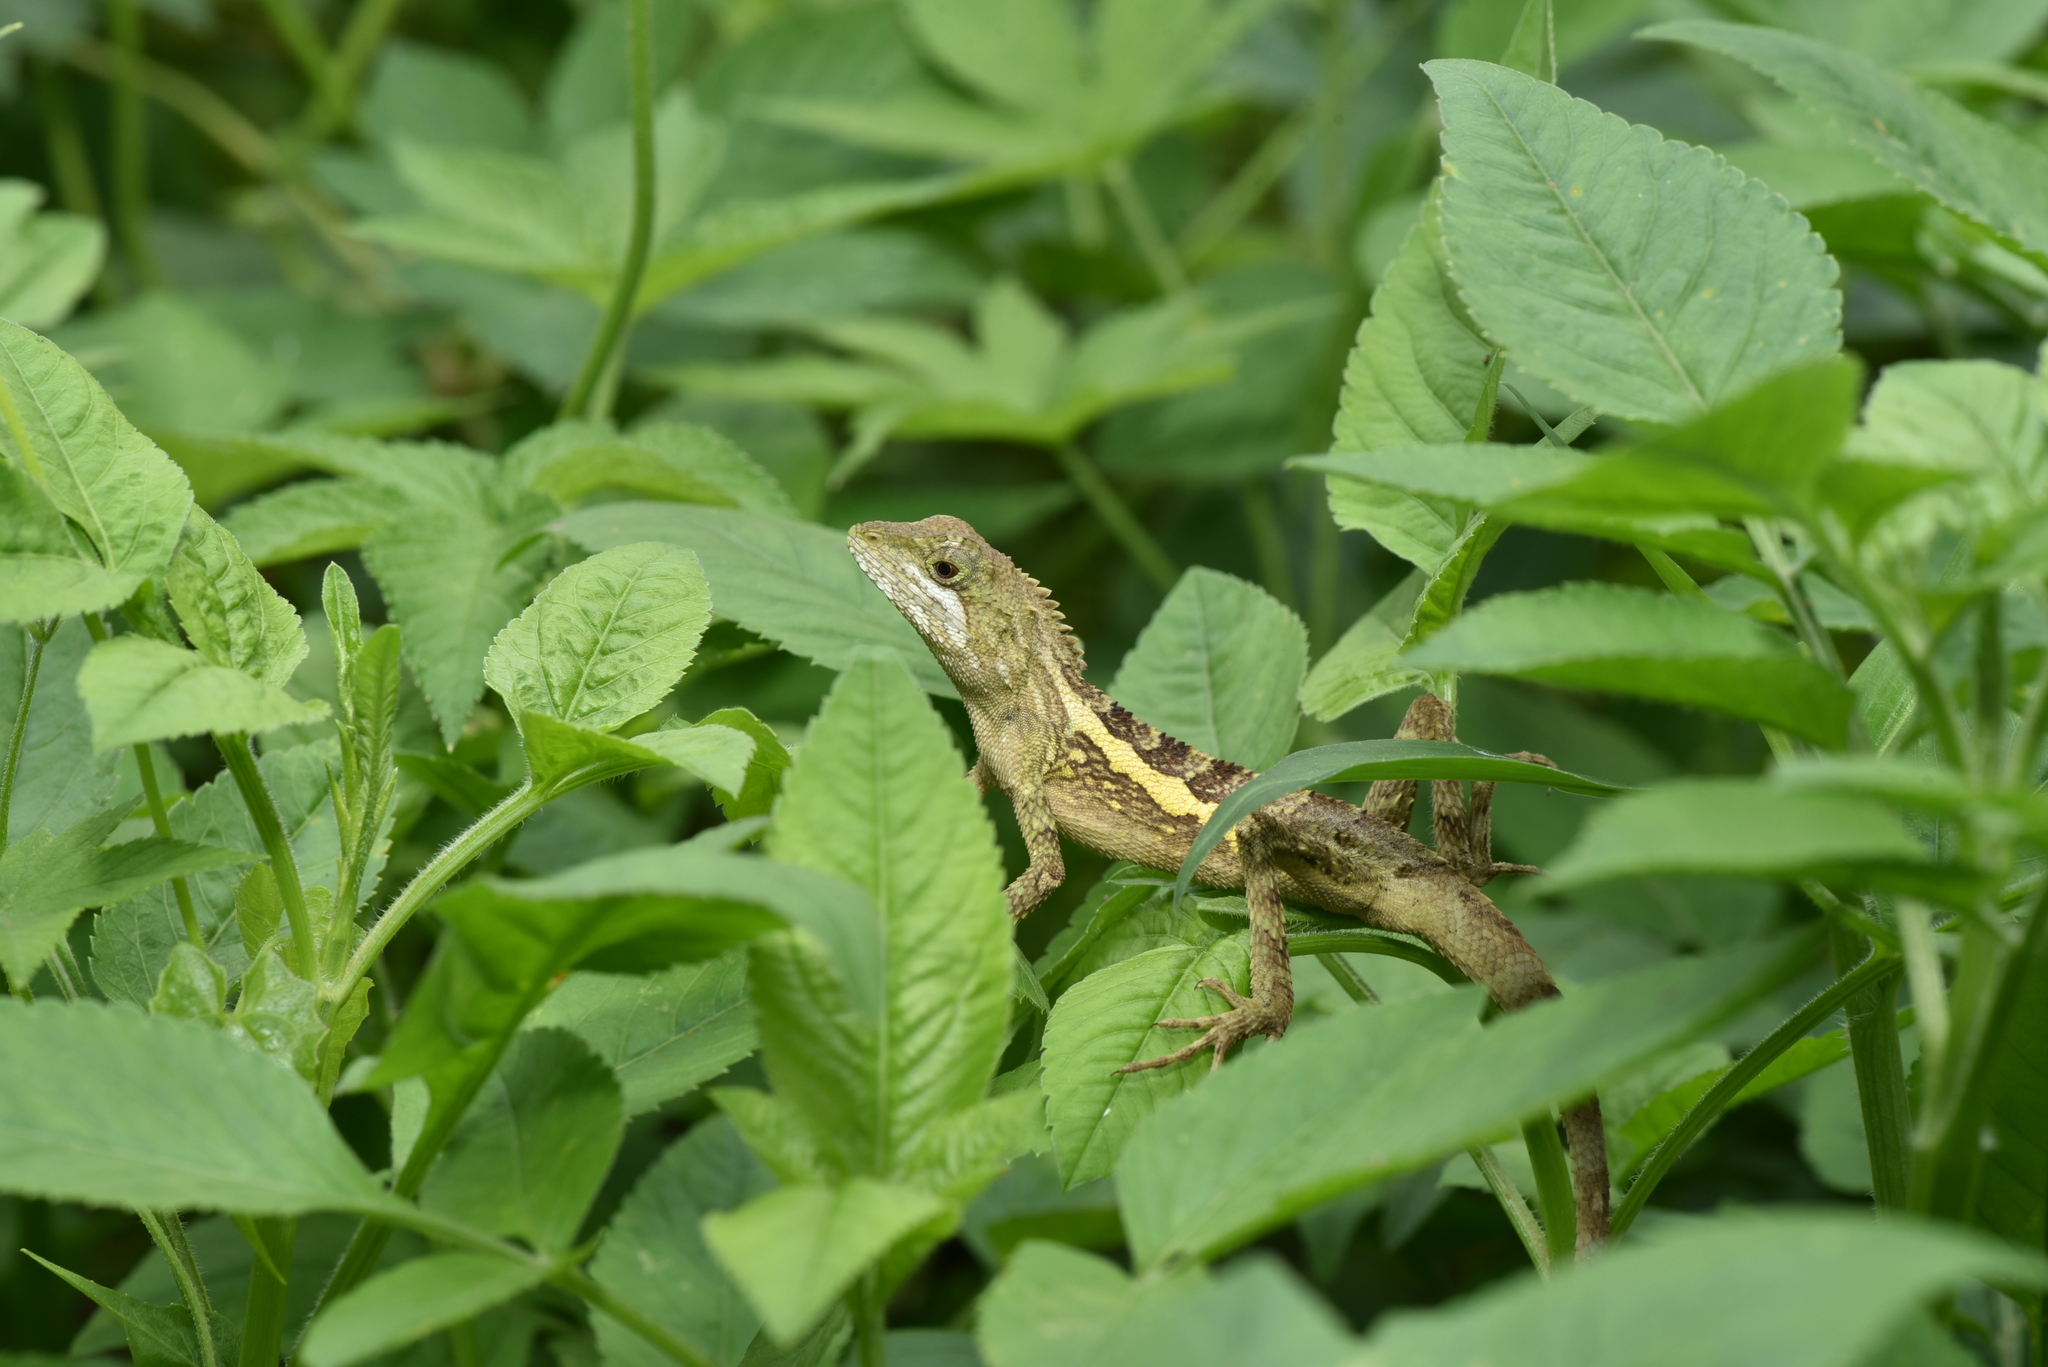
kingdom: Animalia
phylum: Chordata
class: Squamata
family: Agamidae
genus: Diploderma
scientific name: Diploderma swinhonis
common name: Taiwan japalure
